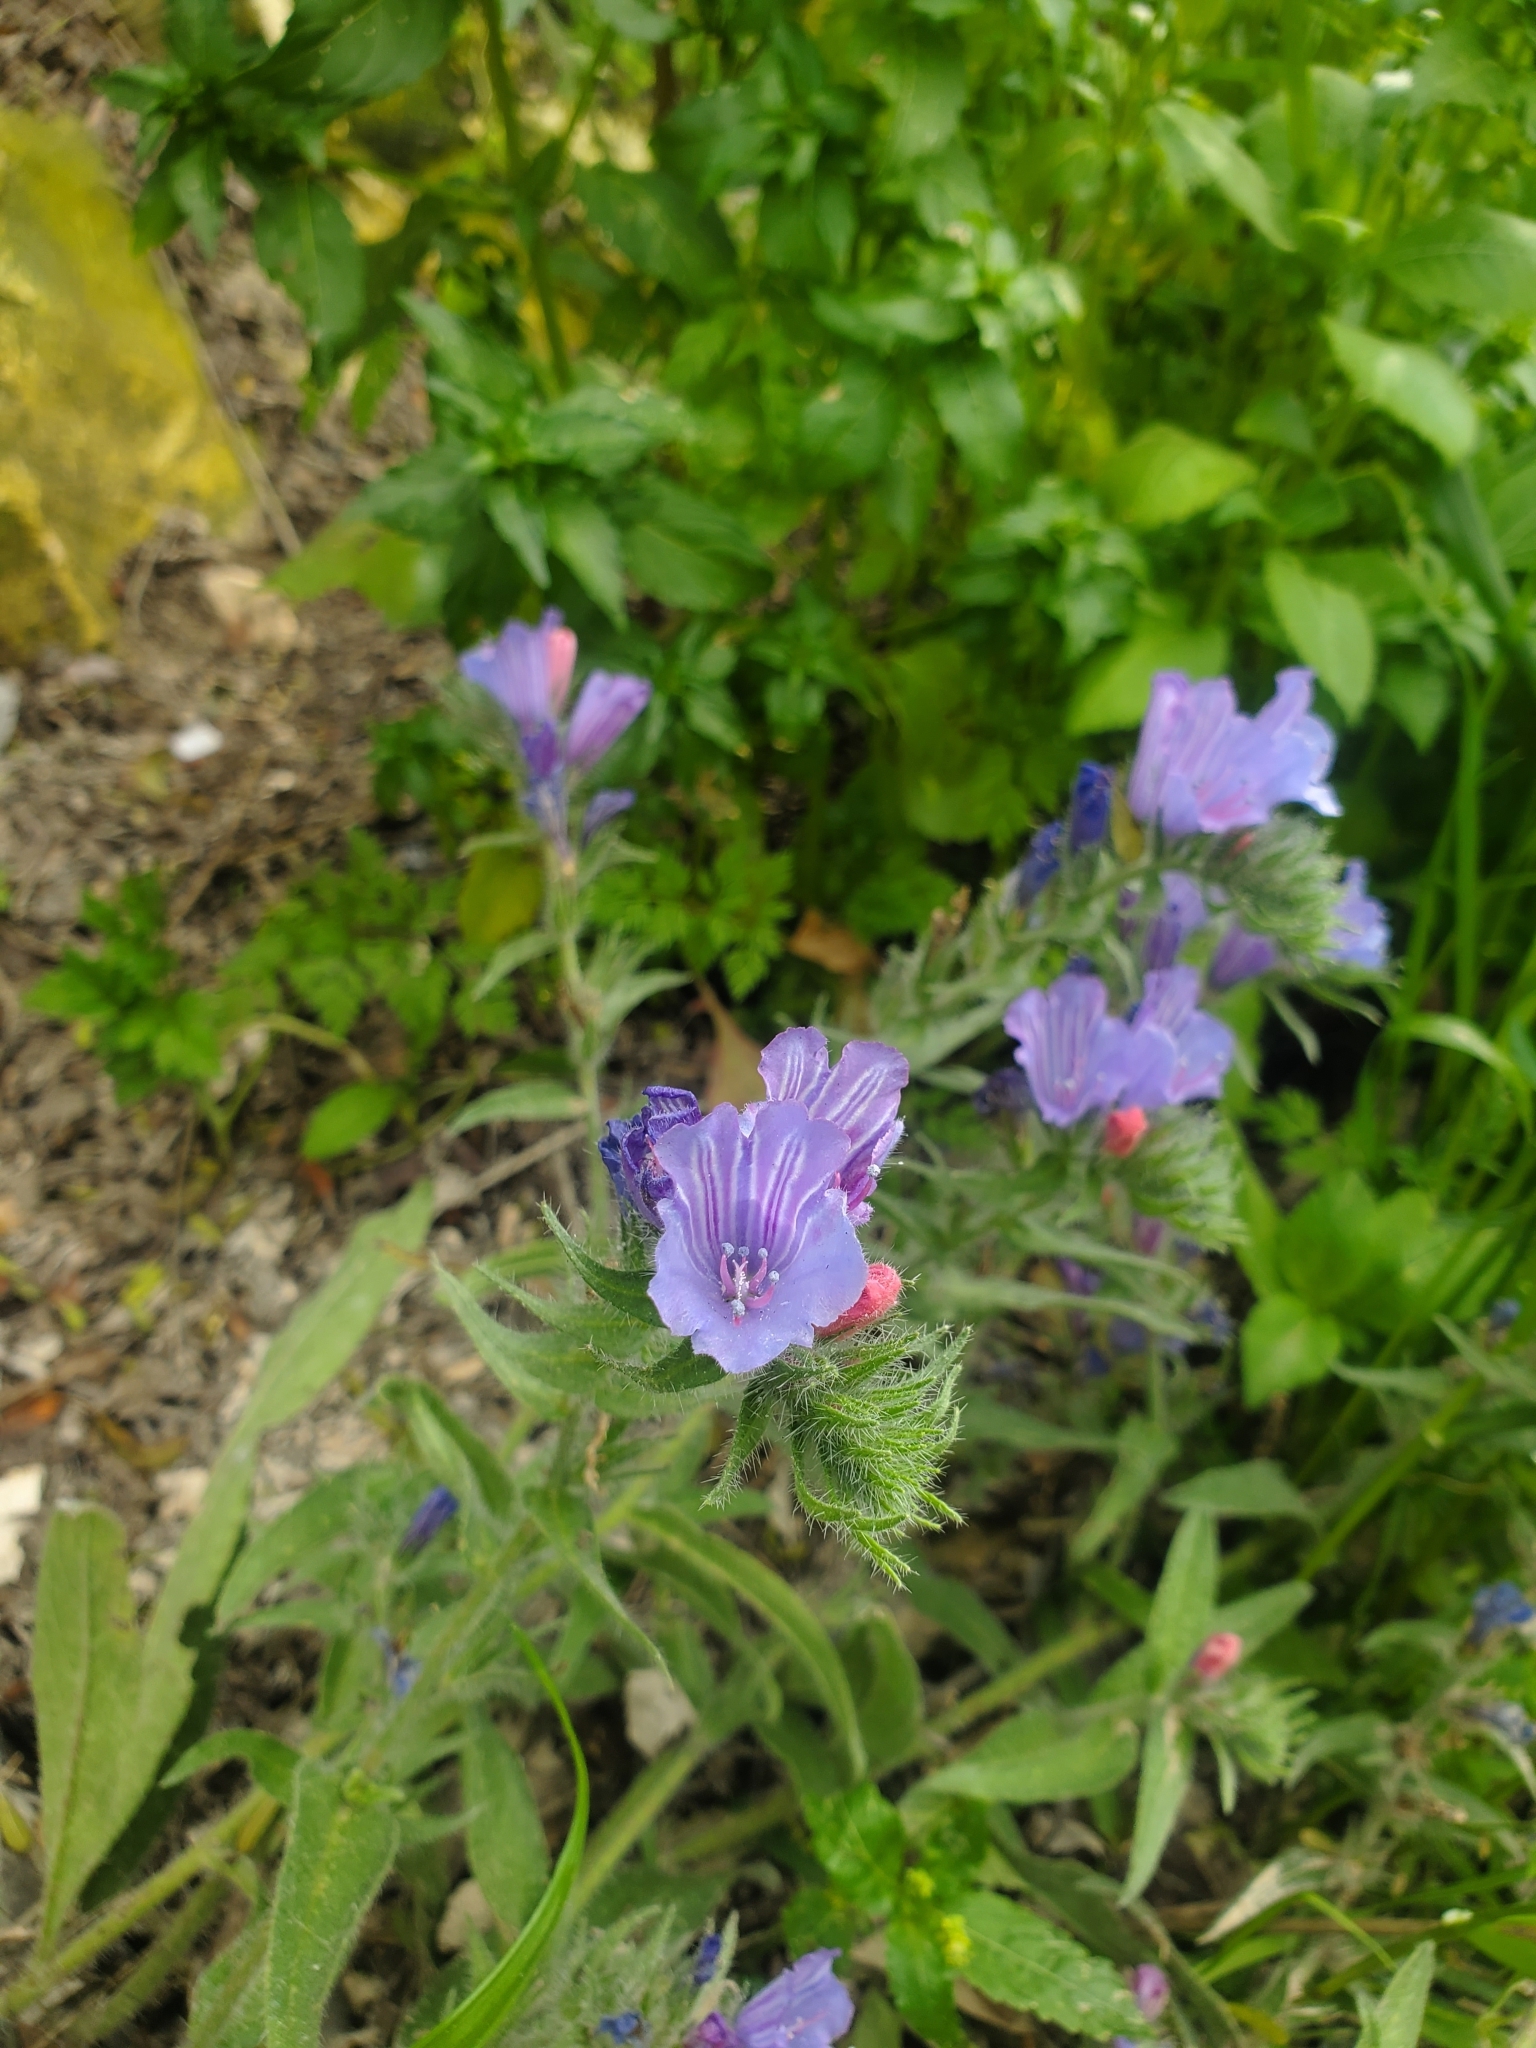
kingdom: Plantae
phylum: Tracheophyta
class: Magnoliopsida
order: Boraginales
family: Boraginaceae
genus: Echium
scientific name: Echium judaeum
